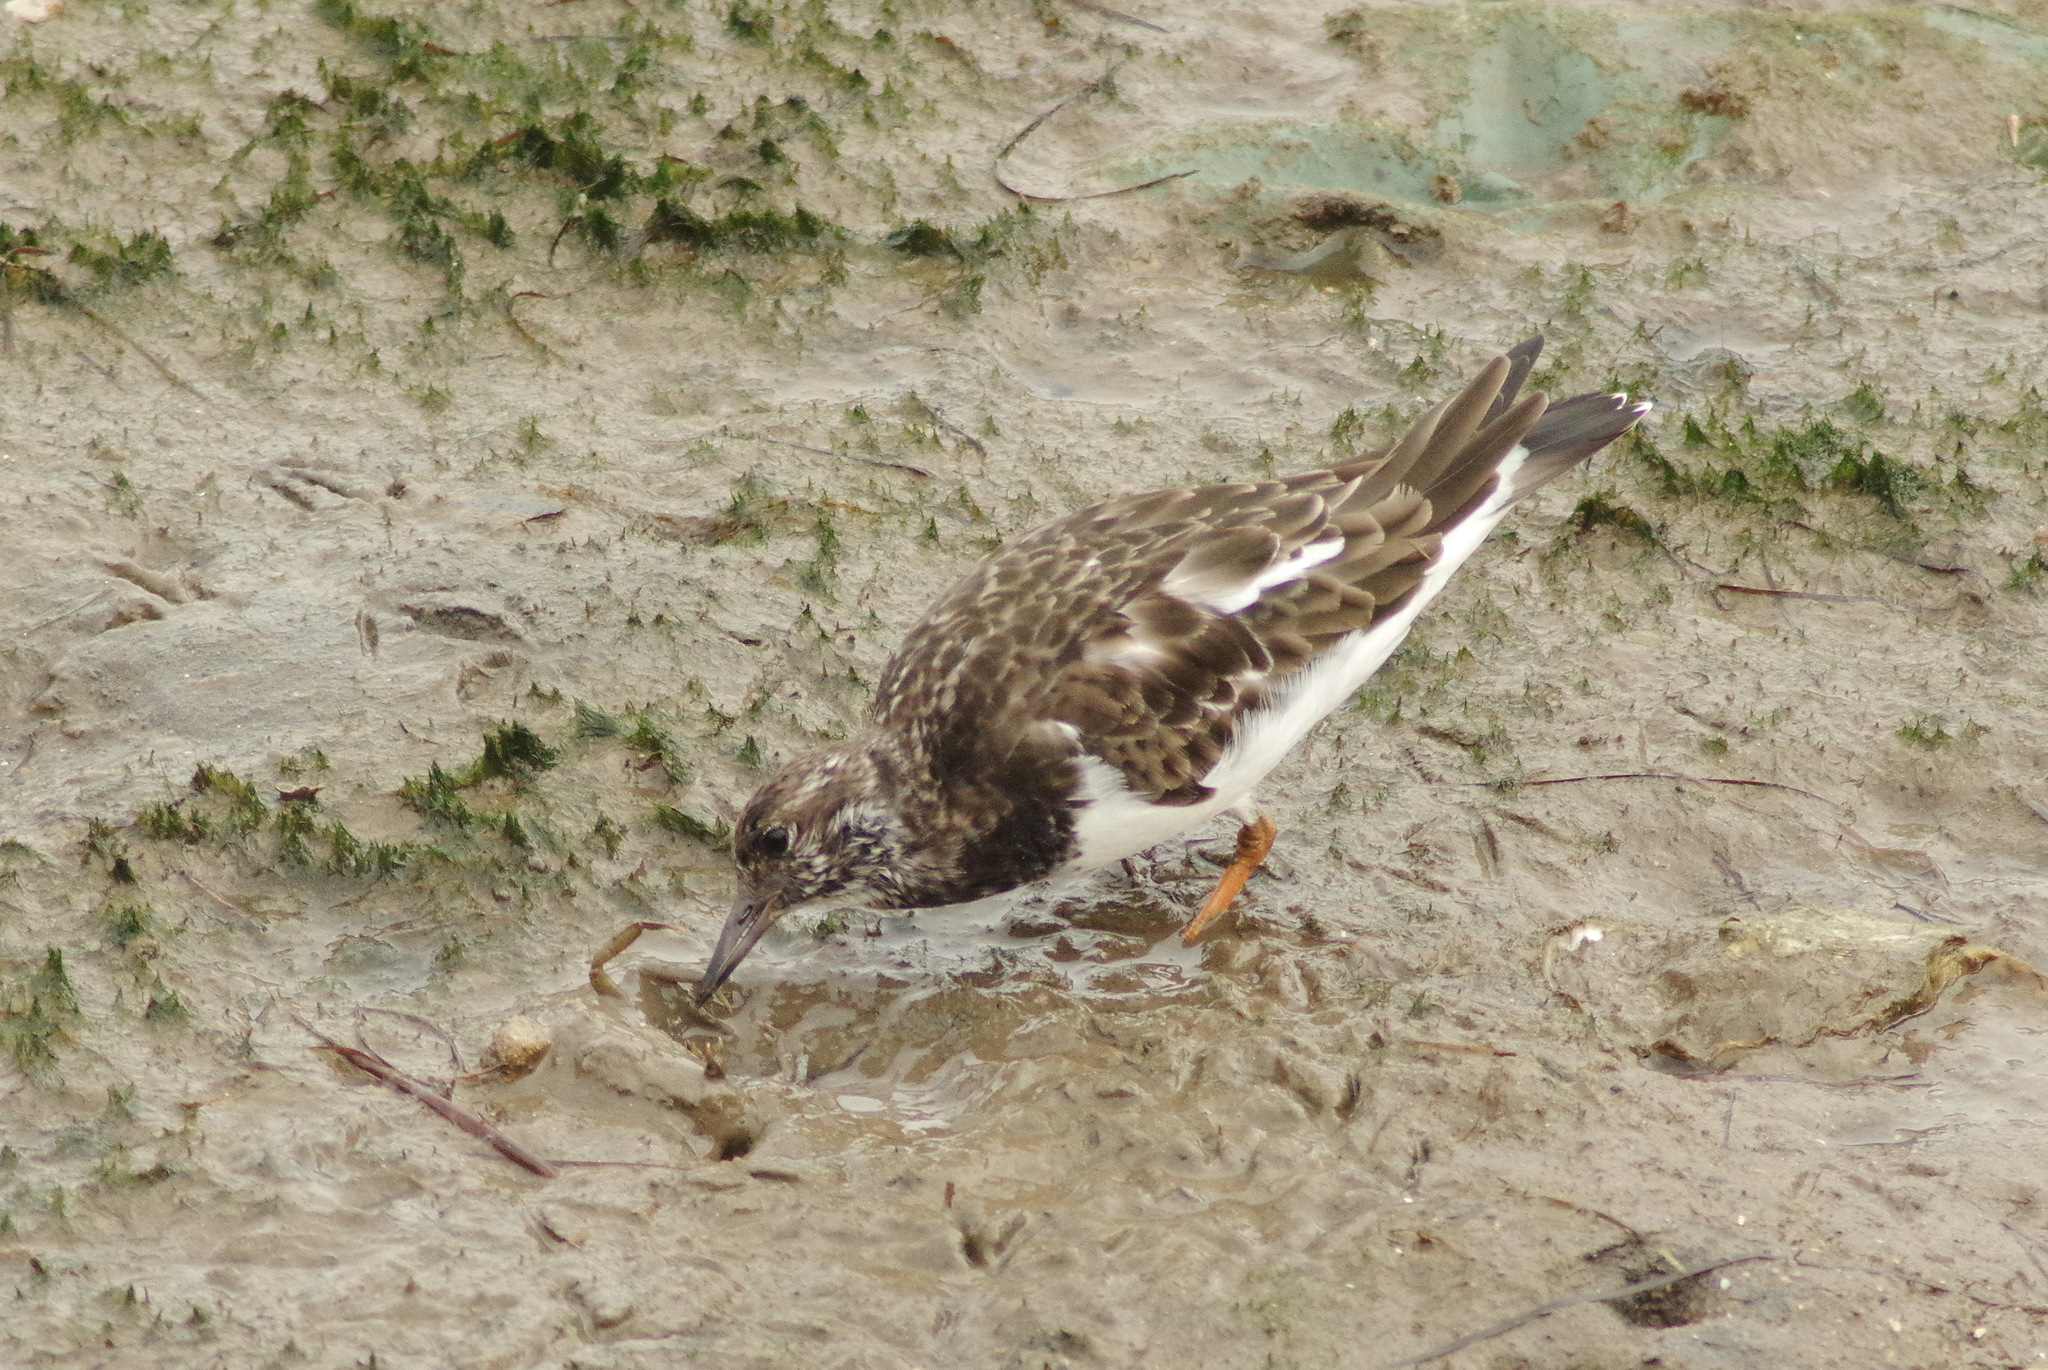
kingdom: Animalia
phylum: Chordata
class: Aves
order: Charadriiformes
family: Scolopacidae
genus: Arenaria
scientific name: Arenaria interpres
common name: Ruddy turnstone
